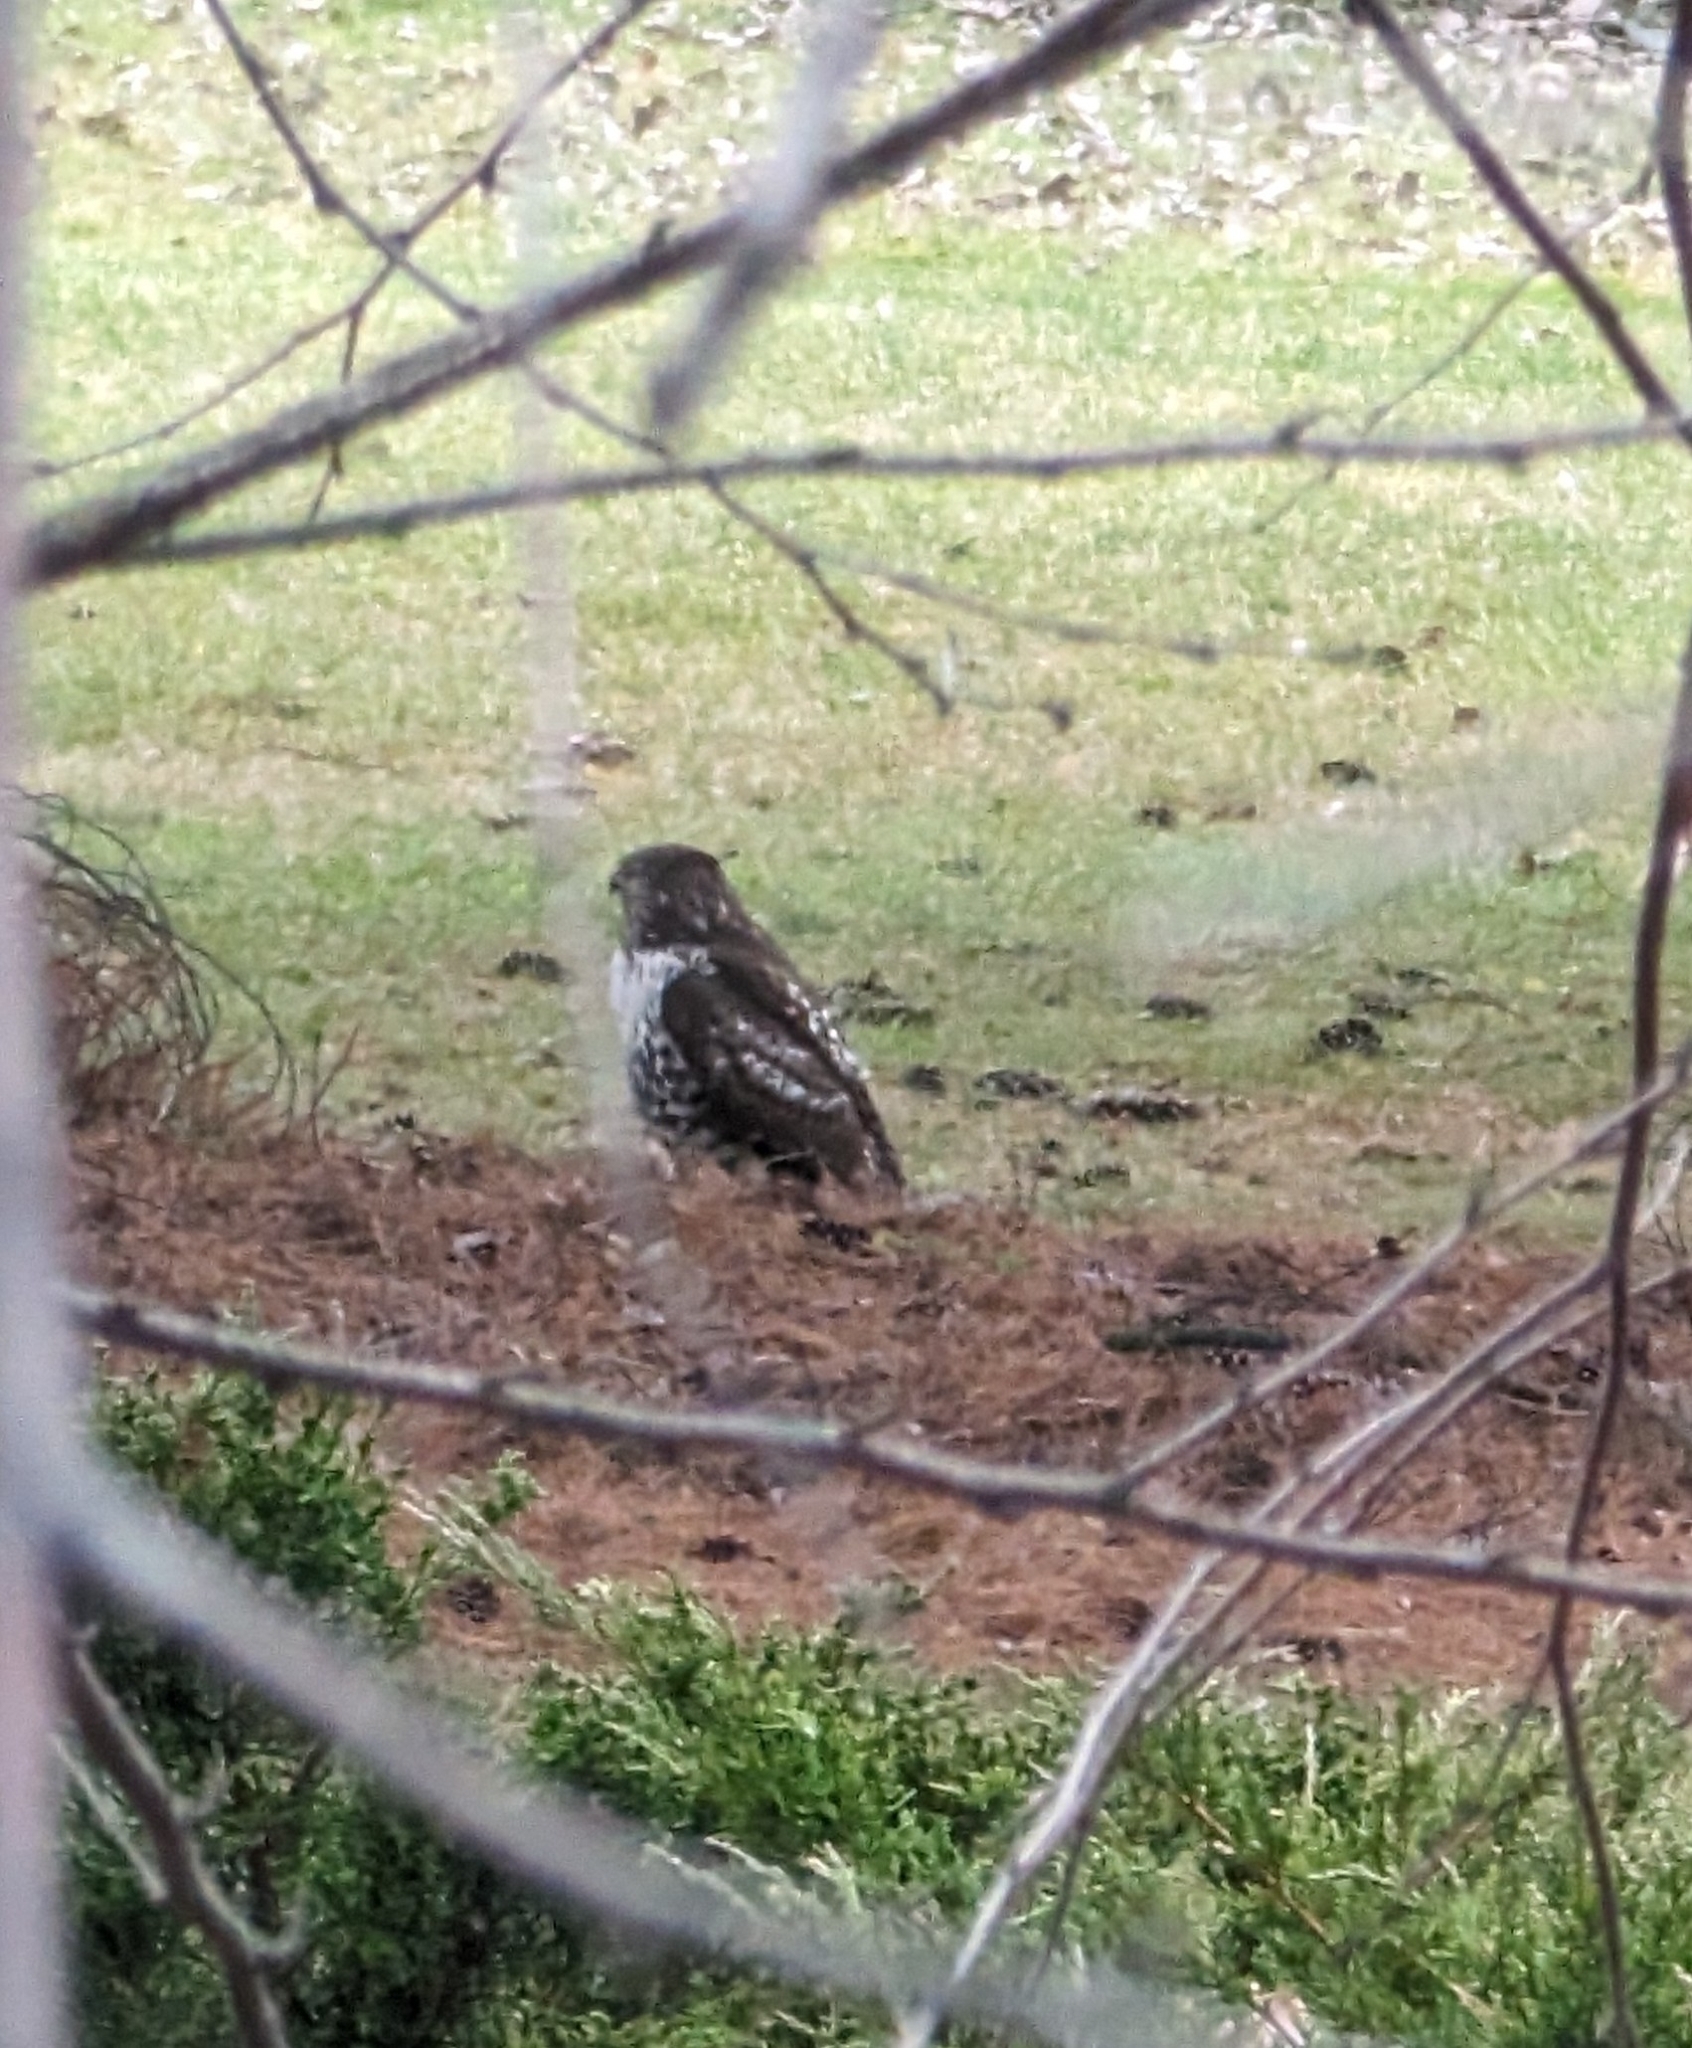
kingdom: Animalia
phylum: Chordata
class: Aves
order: Accipitriformes
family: Accipitridae
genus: Buteo
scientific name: Buteo jamaicensis
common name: Red-tailed hawk
